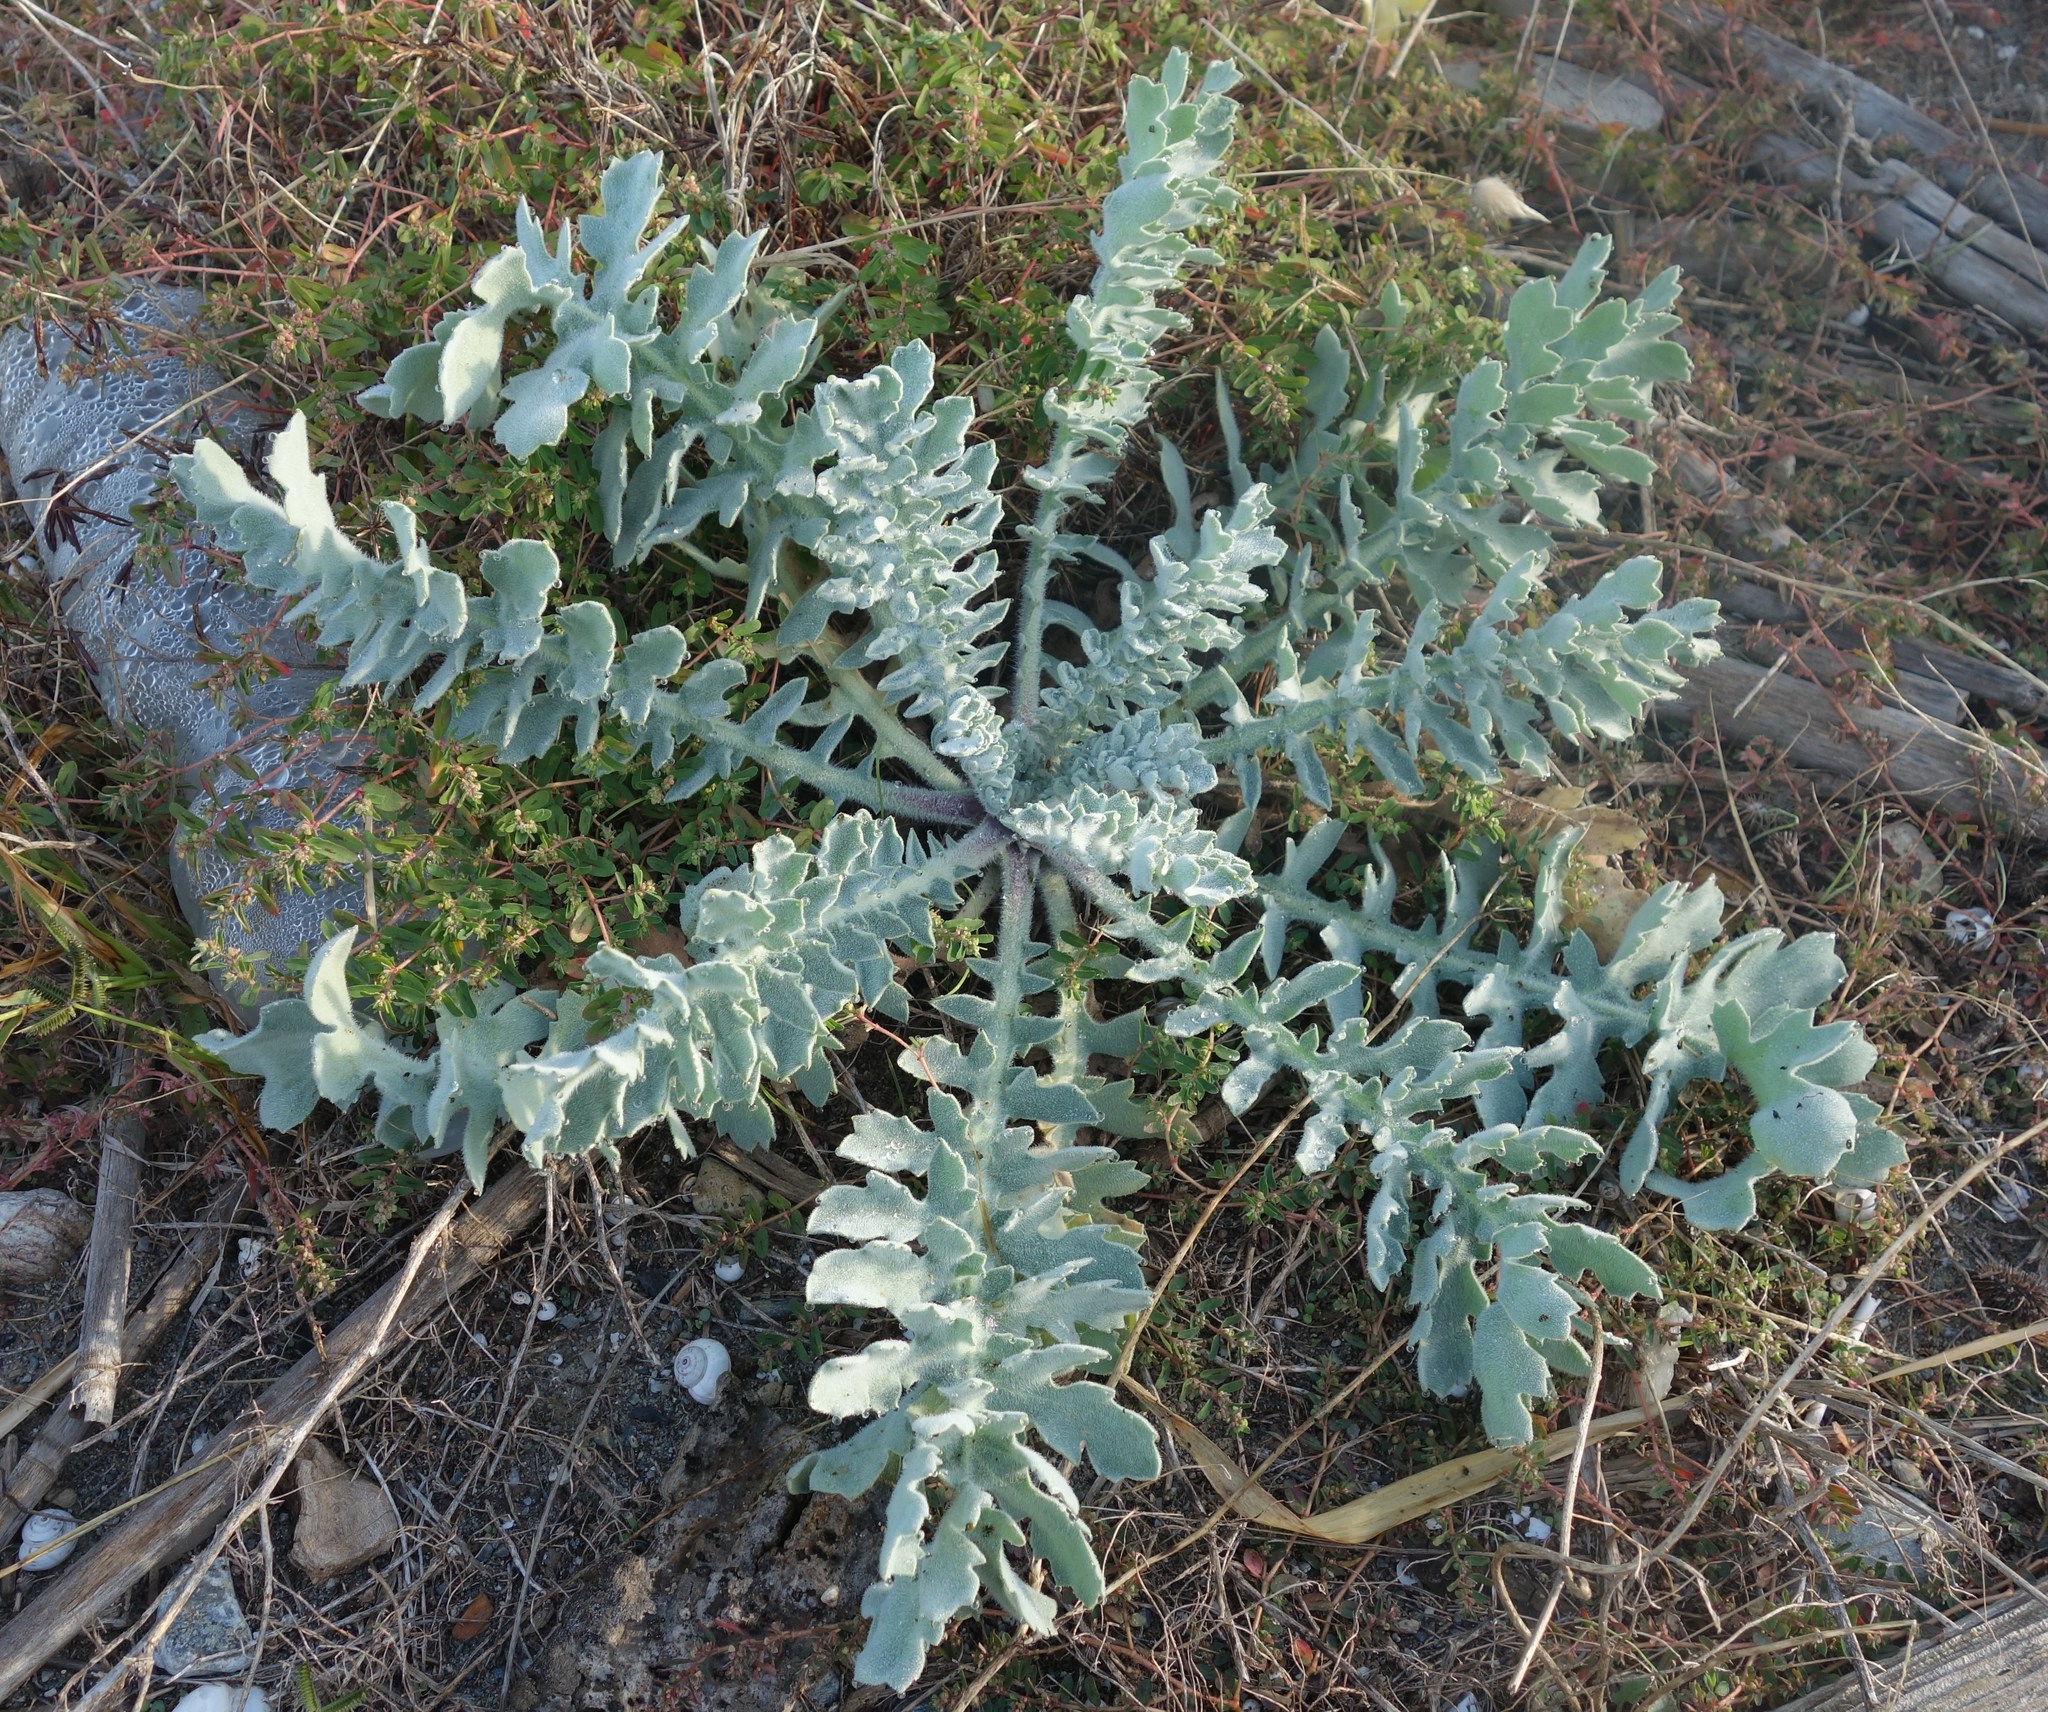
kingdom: Plantae
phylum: Tracheophyta
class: Magnoliopsida
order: Ranunculales
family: Papaveraceae
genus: Glaucium
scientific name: Glaucium flavum
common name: Yellow horned-poppy
